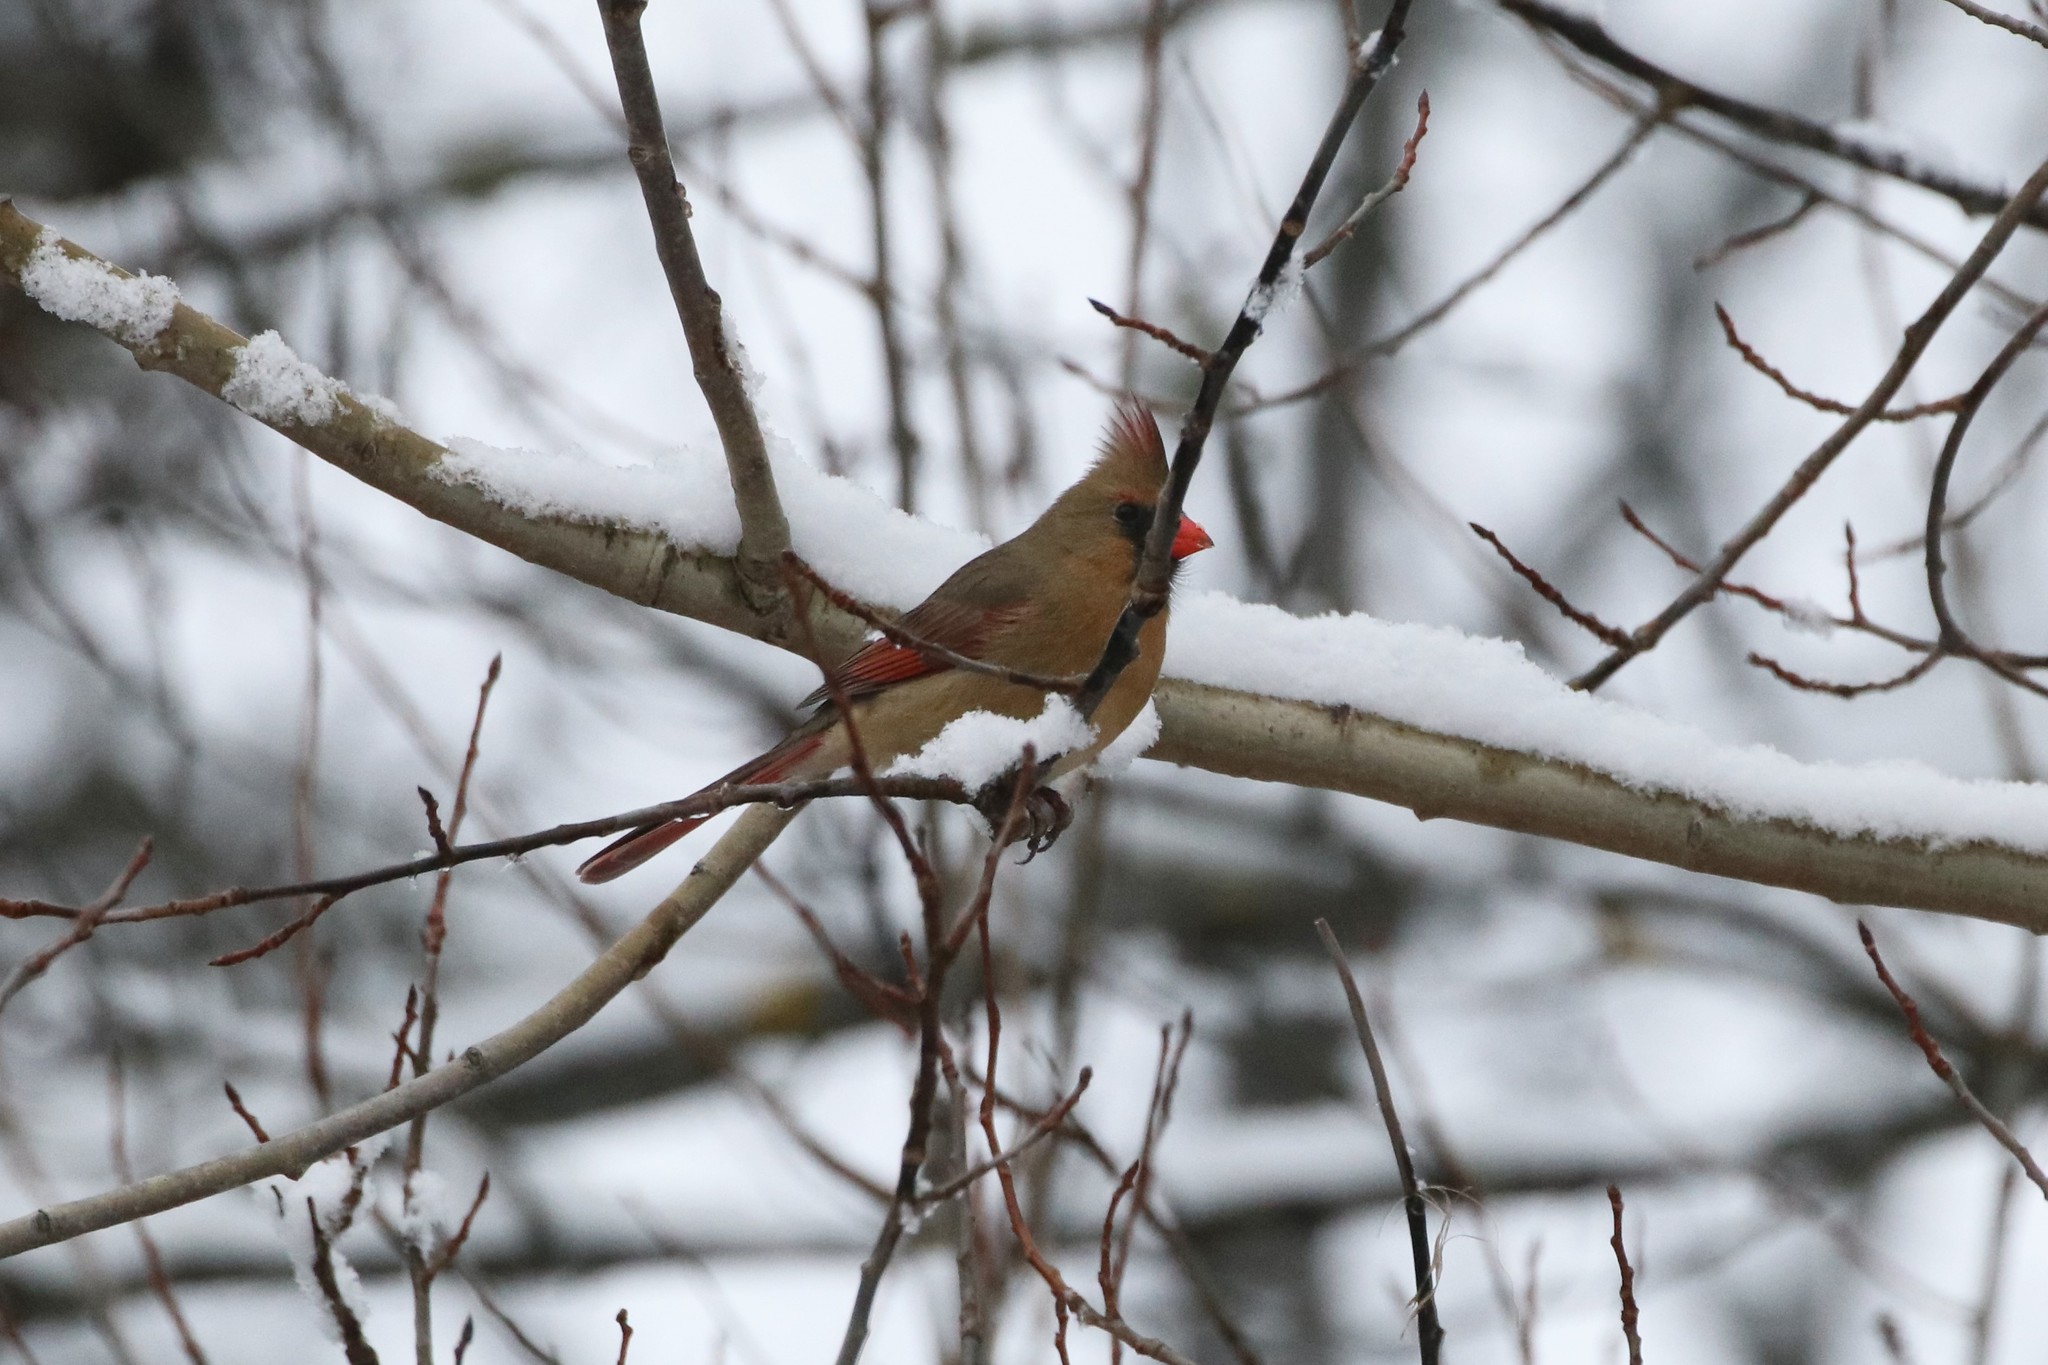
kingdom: Animalia
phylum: Chordata
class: Aves
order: Passeriformes
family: Cardinalidae
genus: Cardinalis
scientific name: Cardinalis cardinalis
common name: Northern cardinal
